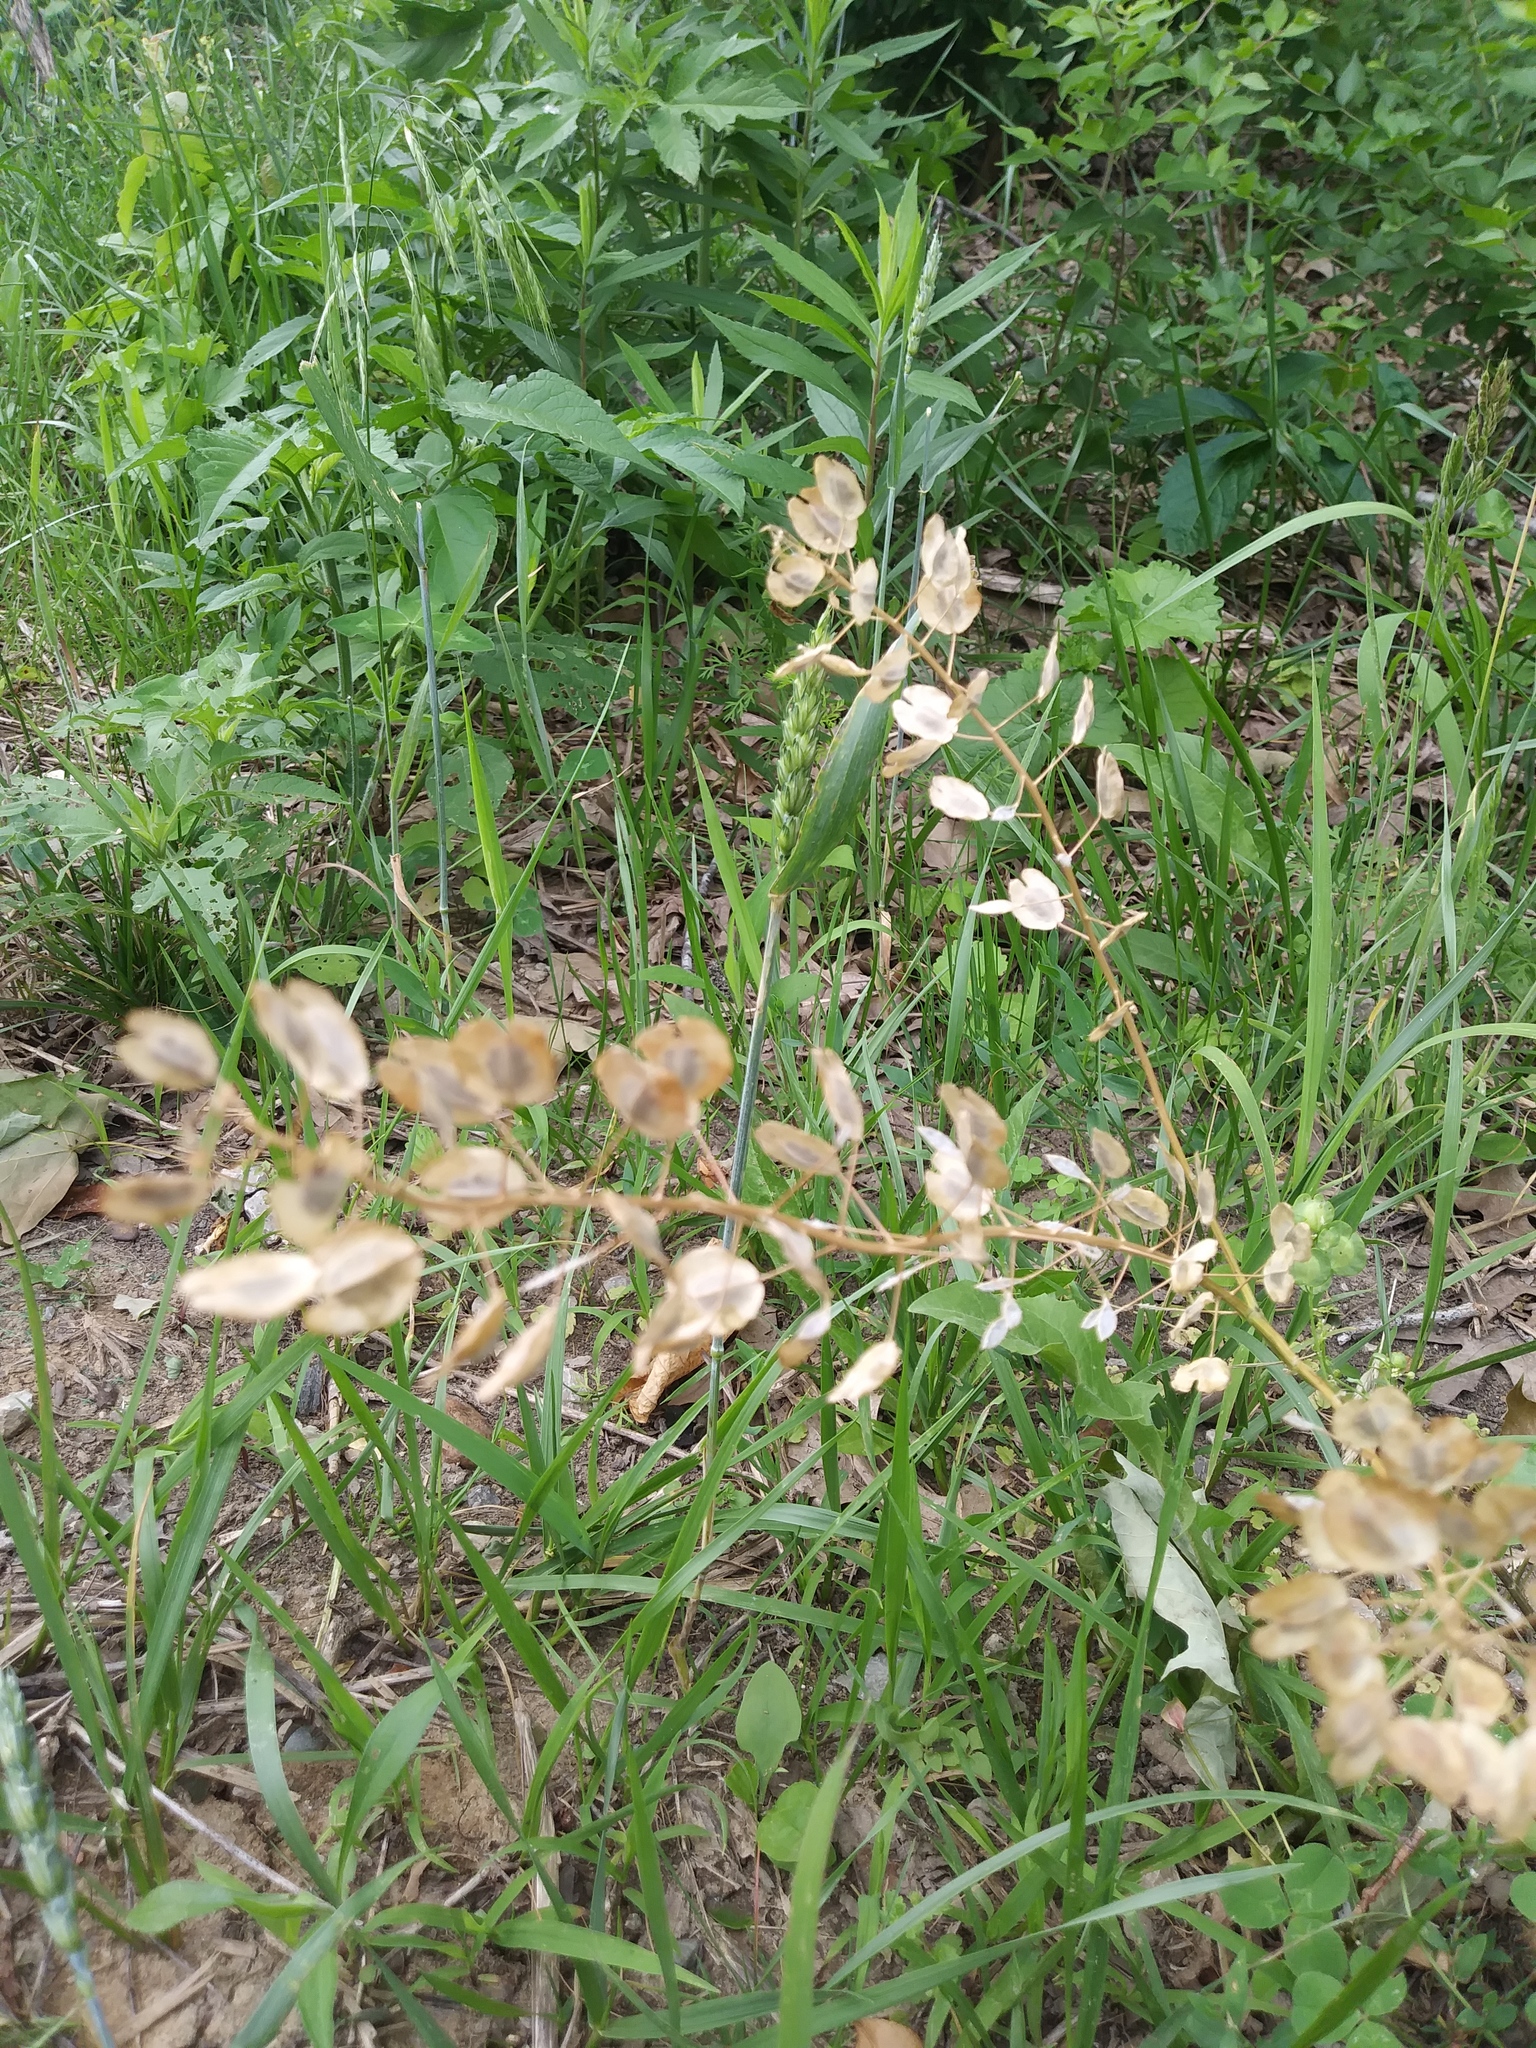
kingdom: Plantae
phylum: Tracheophyta
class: Magnoliopsida
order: Brassicales
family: Brassicaceae
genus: Thlaspi
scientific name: Thlaspi arvense
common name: Field pennycress
